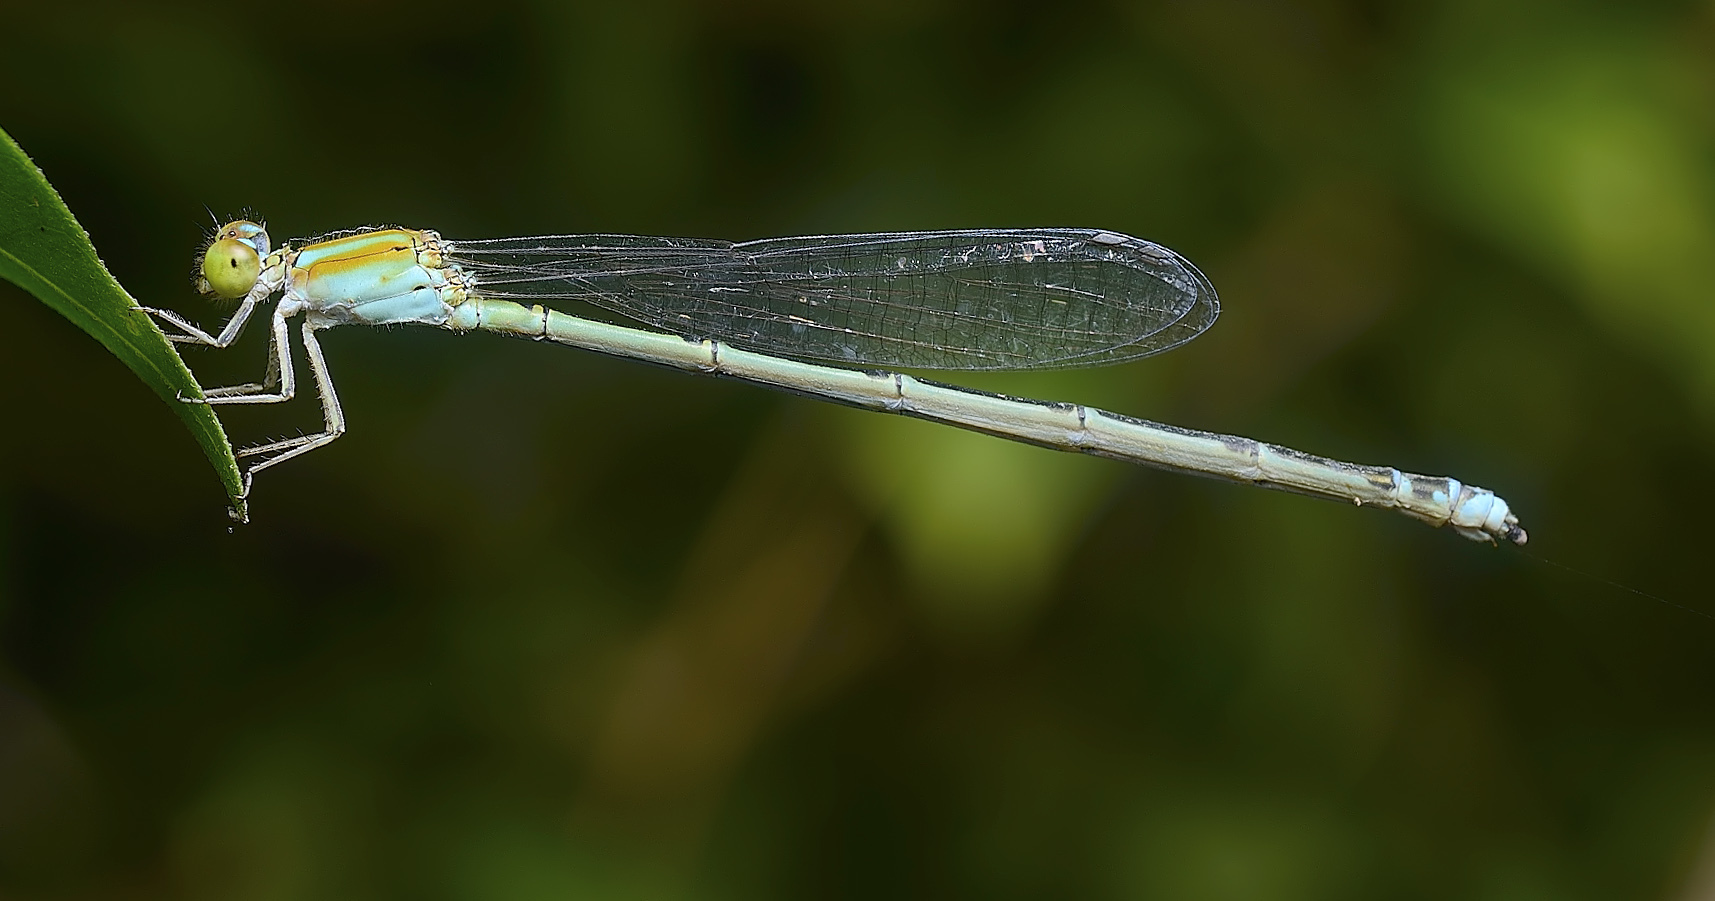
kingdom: Animalia
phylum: Arthropoda
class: Insecta
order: Odonata
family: Coenagrionidae
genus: Pseudagrion
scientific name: Pseudagrion microcephalum
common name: Blue riverdamsel
